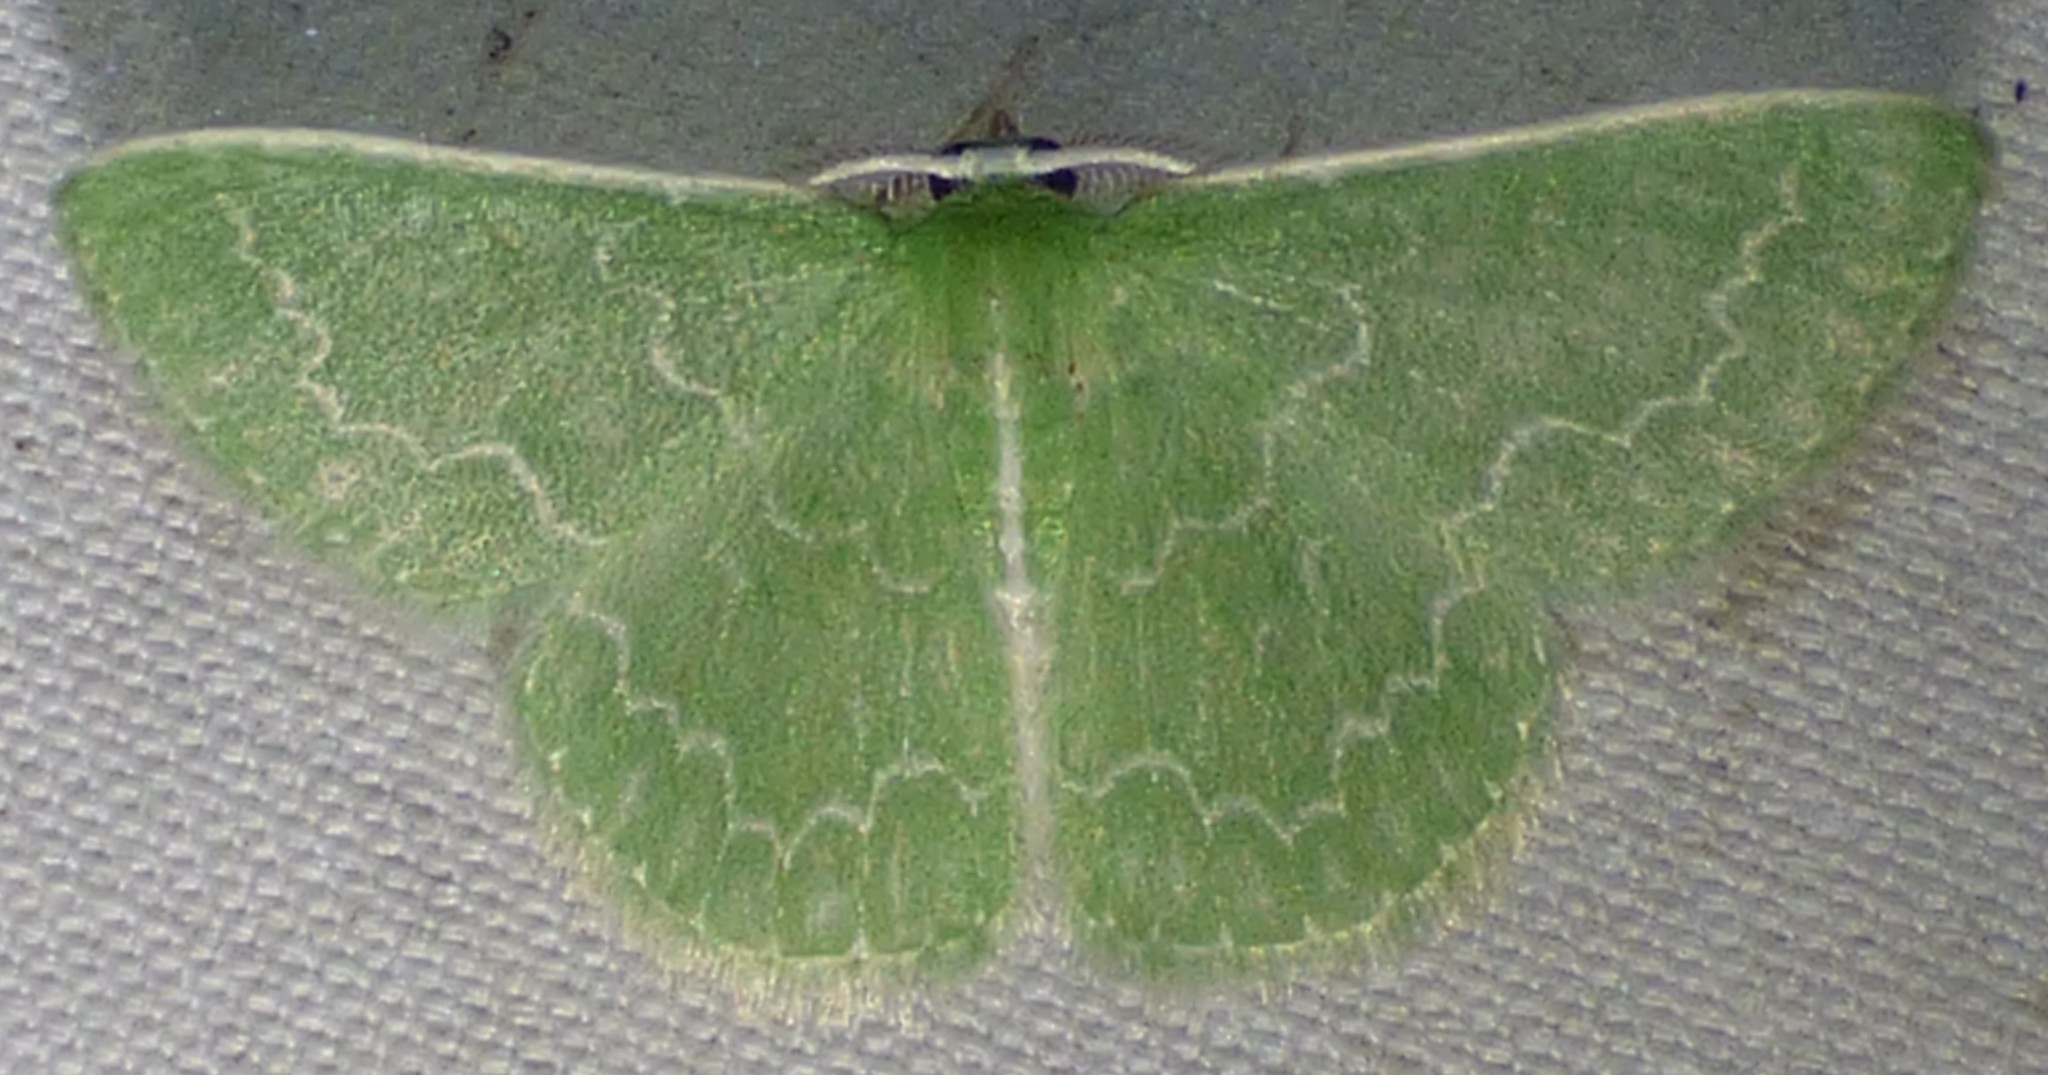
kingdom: Animalia
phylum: Arthropoda
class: Insecta
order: Lepidoptera
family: Geometridae
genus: Synchlora
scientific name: Synchlora frondaria
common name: Southern emerald
